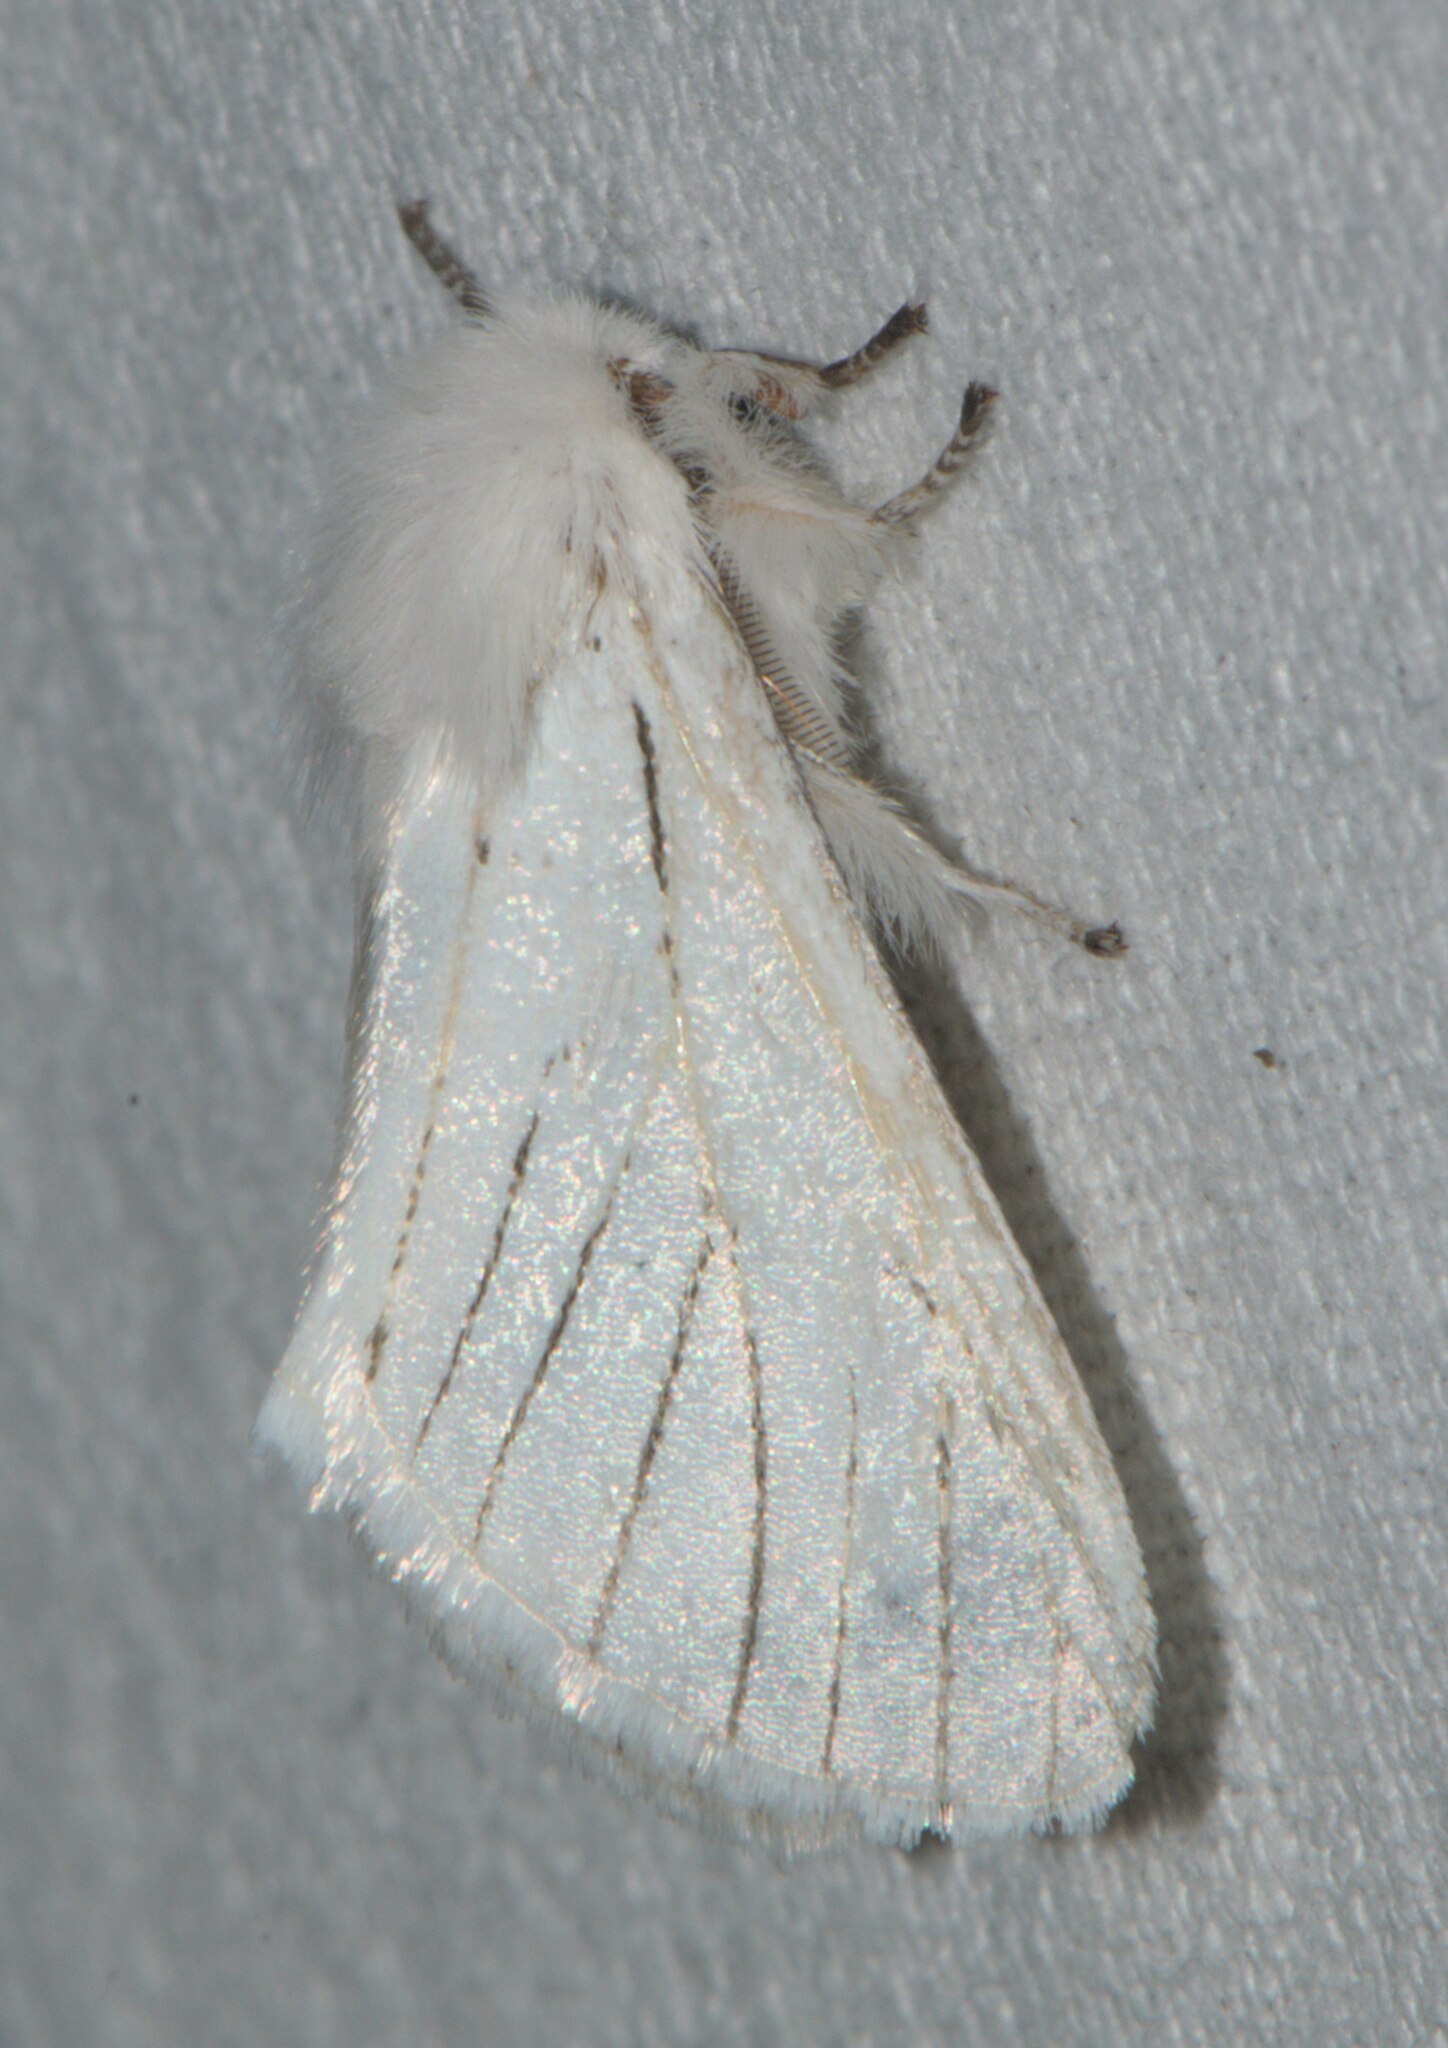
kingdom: Animalia
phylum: Arthropoda
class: Insecta
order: Lepidoptera
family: Notodontidae
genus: Oligoclona
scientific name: Oligoclona chrysolopha
